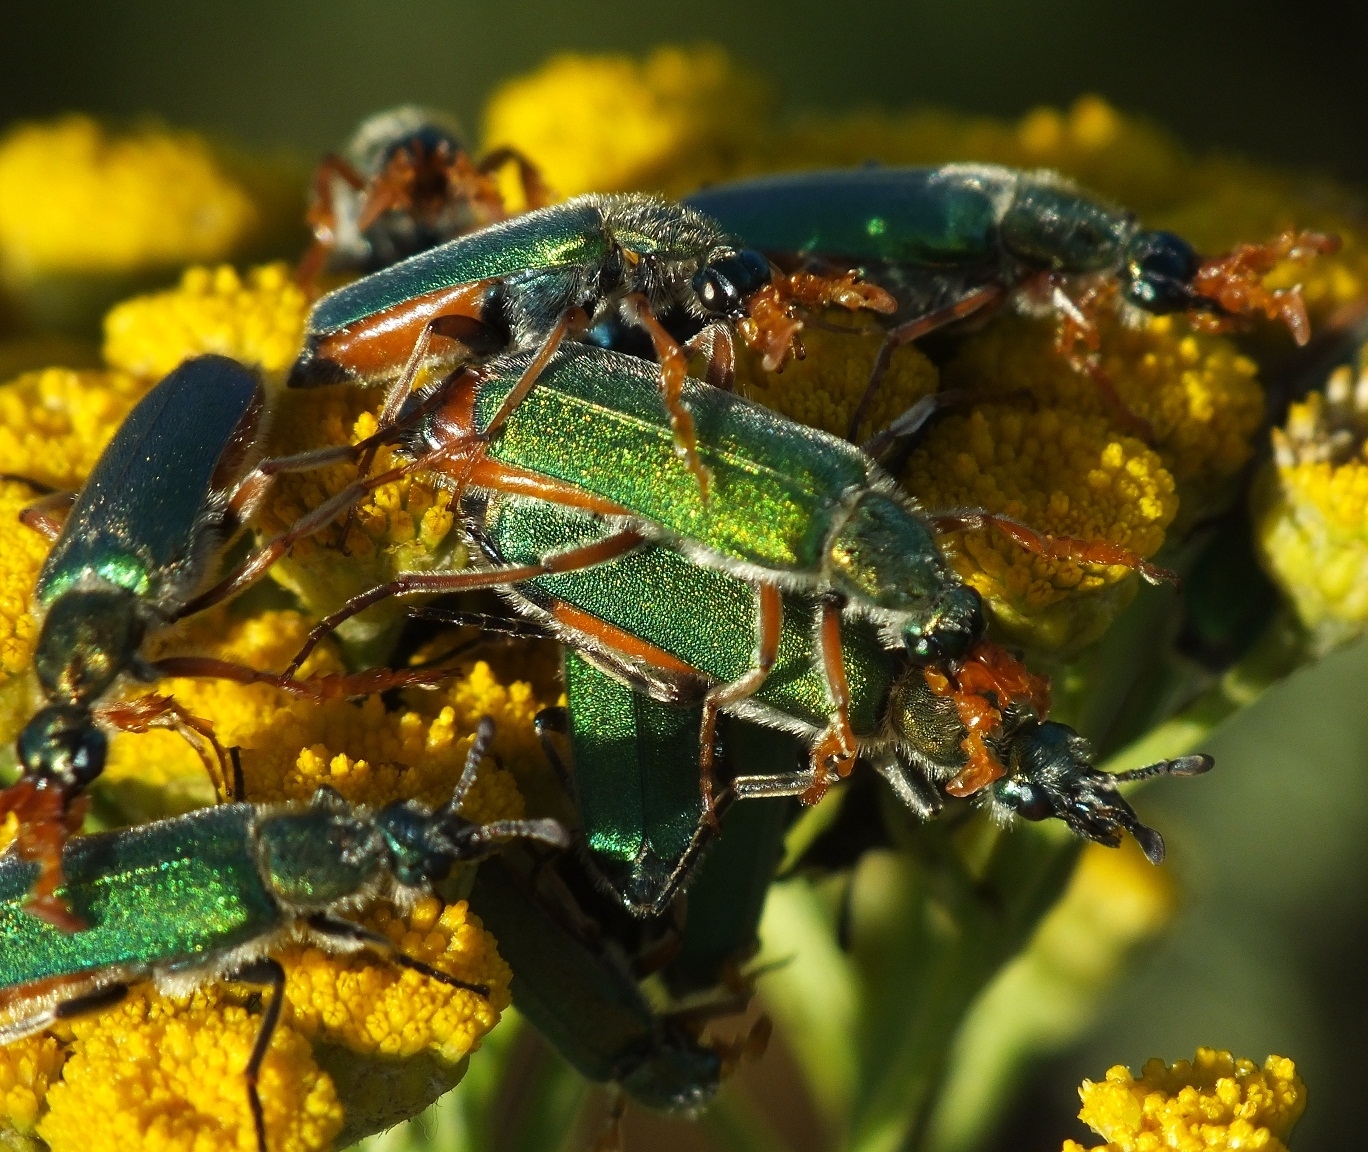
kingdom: Animalia
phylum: Arthropoda
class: Insecta
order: Coleoptera
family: Meloidae
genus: Cerocoma
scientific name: Cerocoma schreberi
